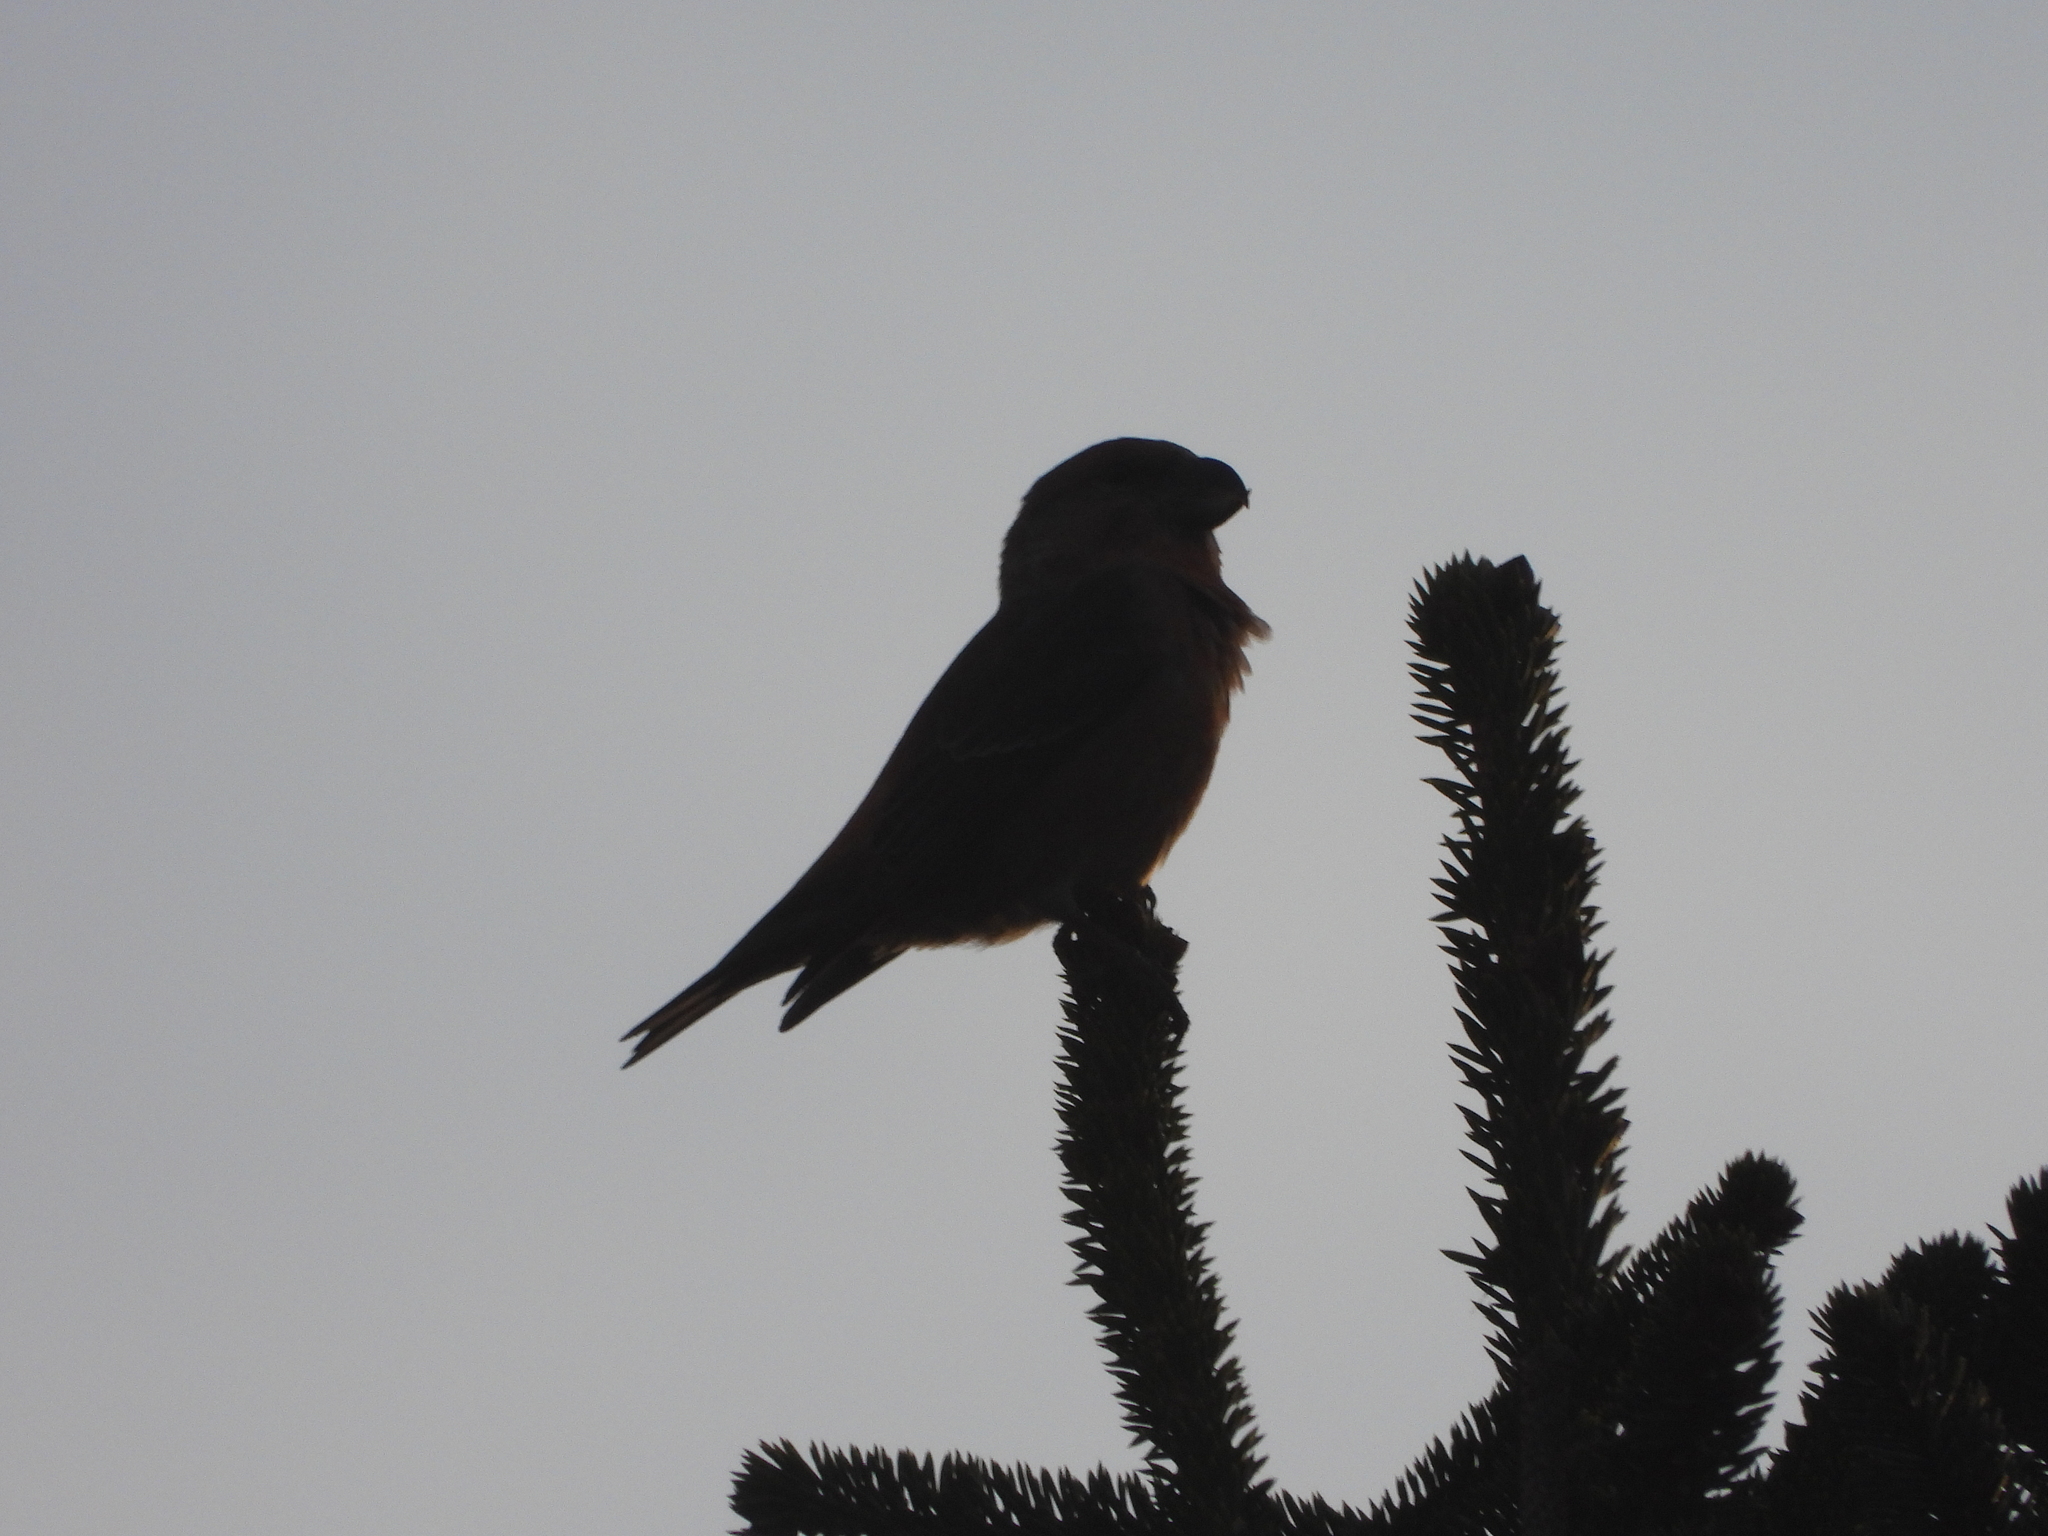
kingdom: Animalia
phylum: Chordata
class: Aves
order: Passeriformes
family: Fringillidae
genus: Loxia
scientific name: Loxia pytyopsittacus
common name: Parrot crossbill
